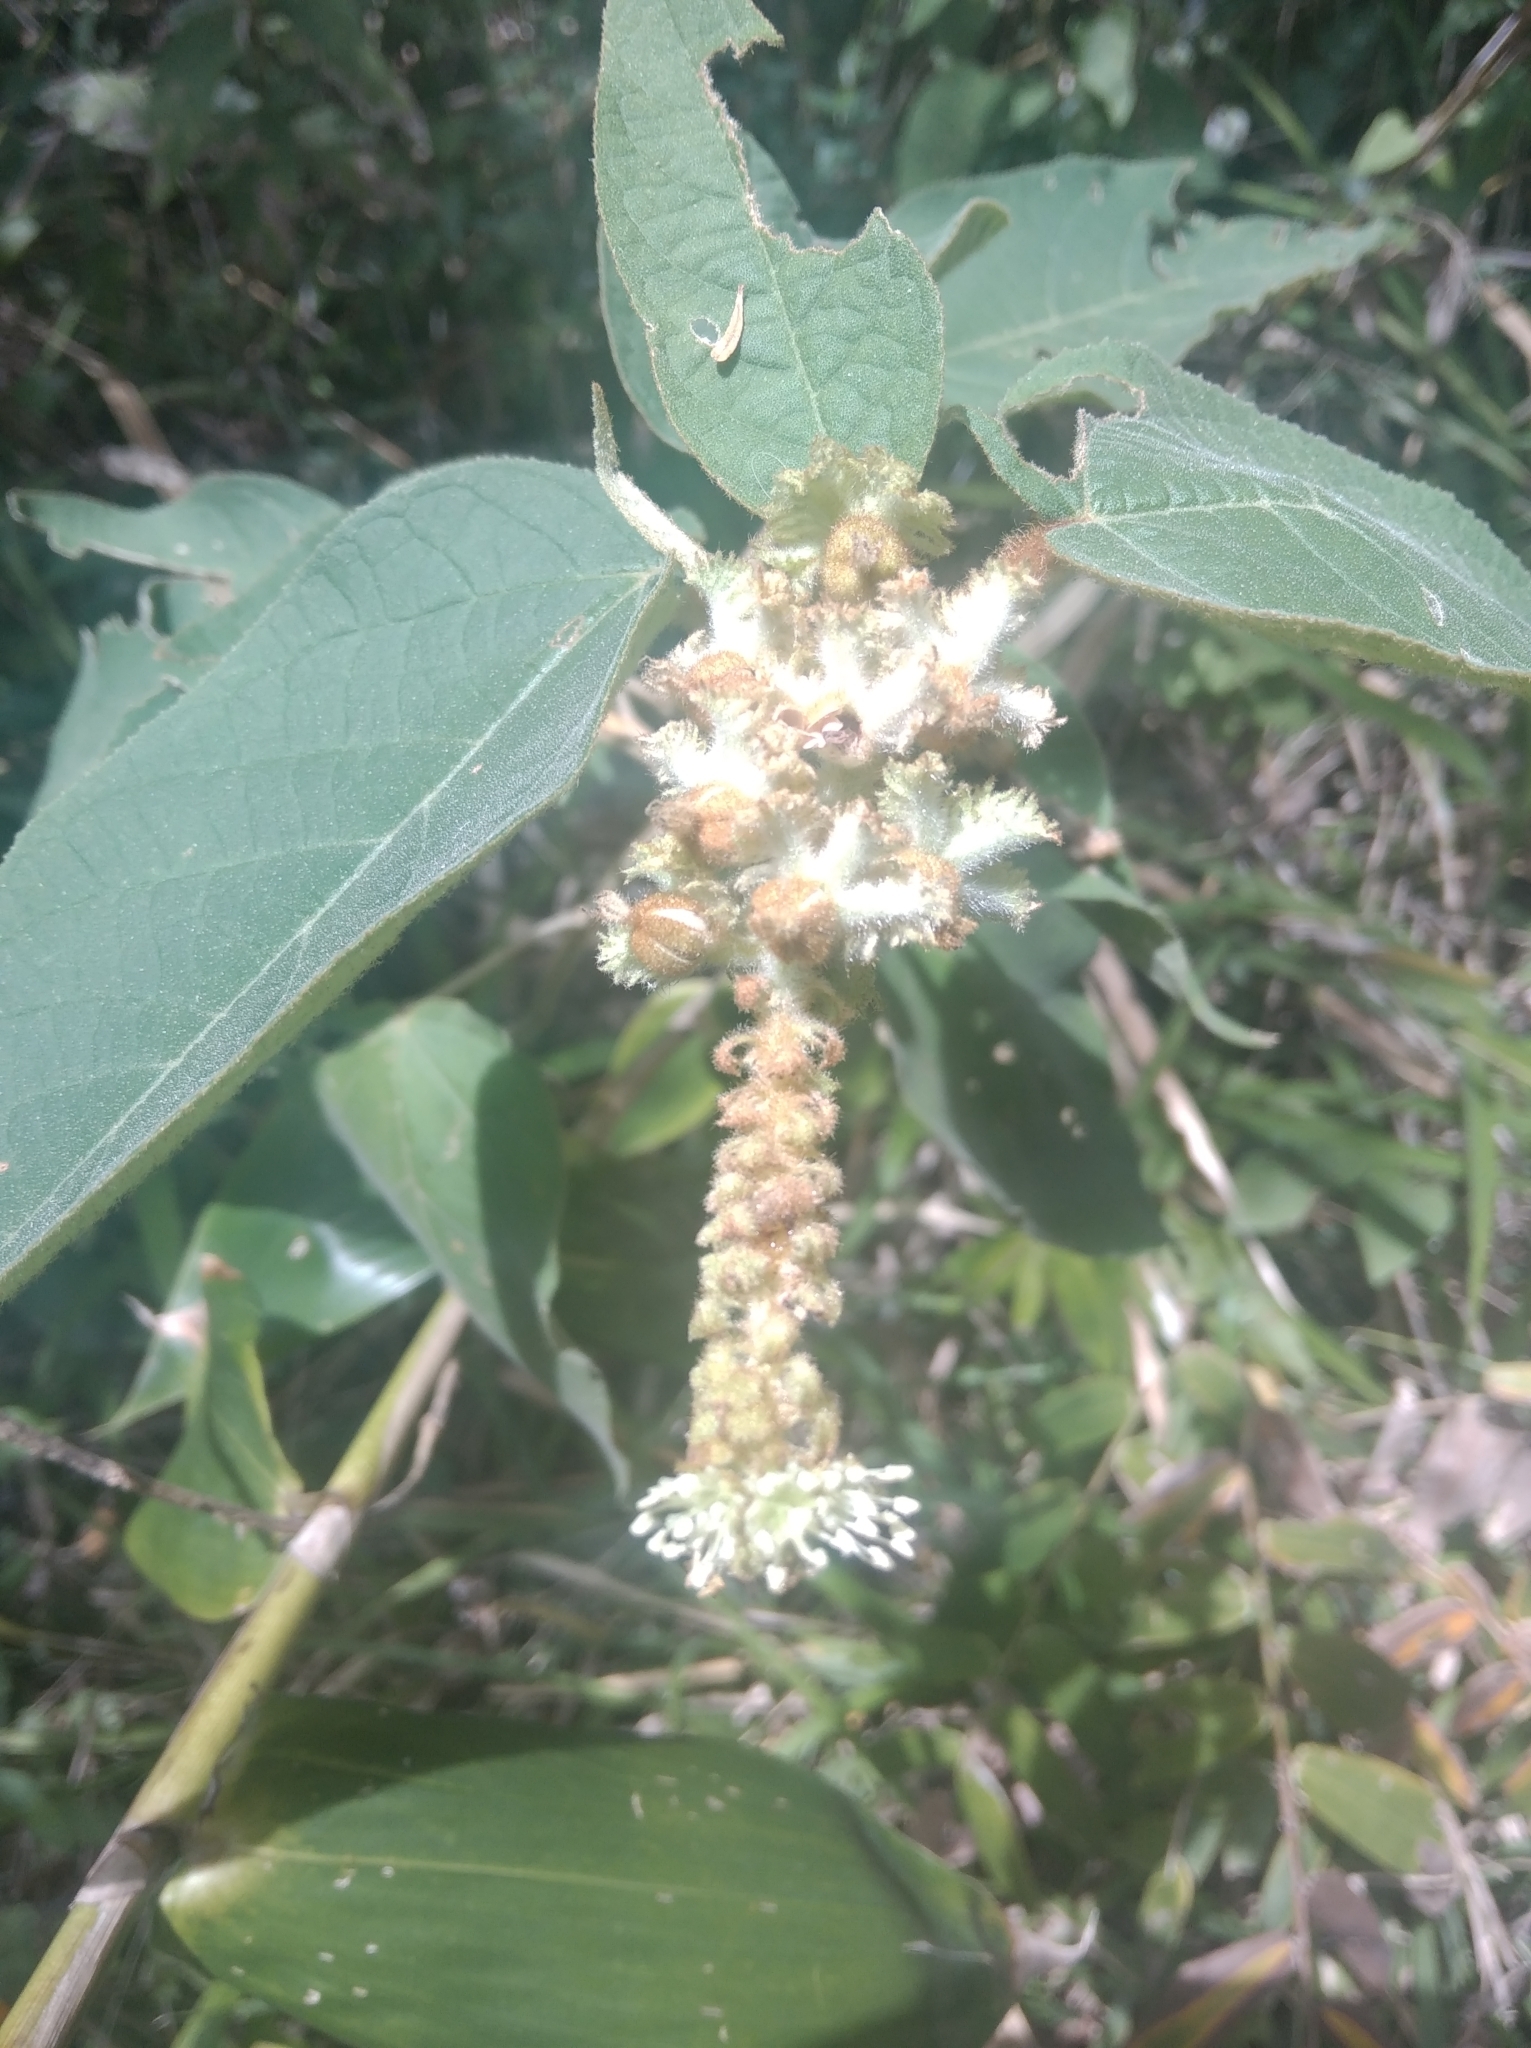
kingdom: Plantae
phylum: Tracheophyta
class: Magnoliopsida
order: Malpighiales
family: Euphorbiaceae
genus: Croton
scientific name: Croton triqueter
